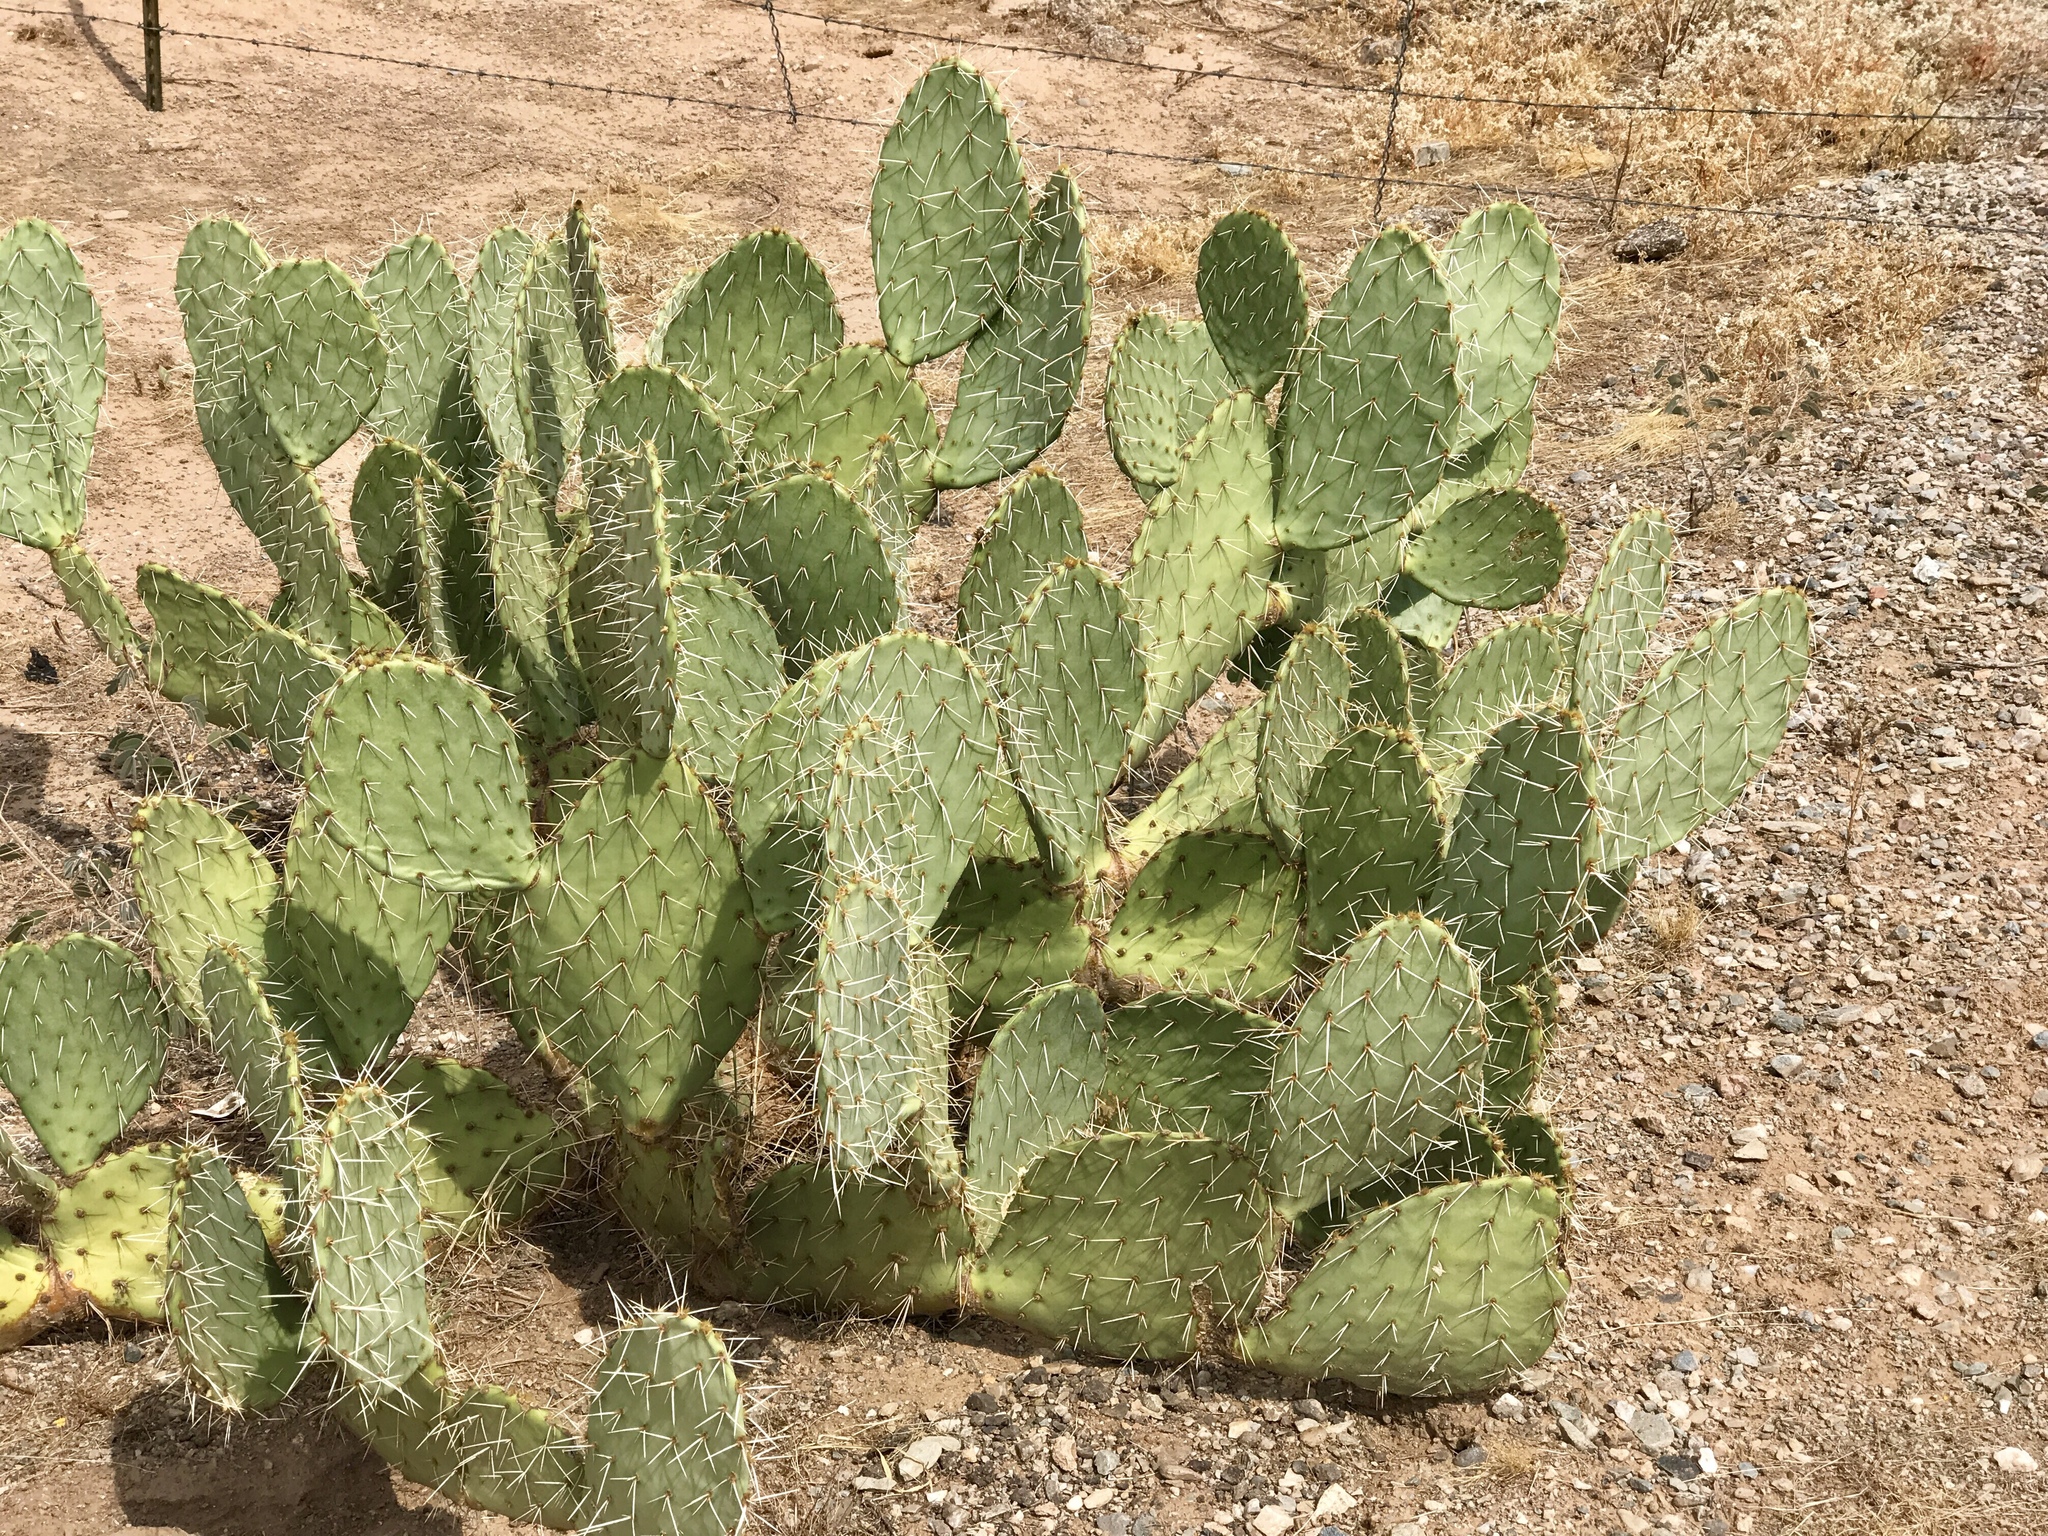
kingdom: Plantae
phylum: Tracheophyta
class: Magnoliopsida
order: Caryophyllales
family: Cactaceae
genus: Opuntia
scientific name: Opuntia engelmannii
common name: Cactus-apple
